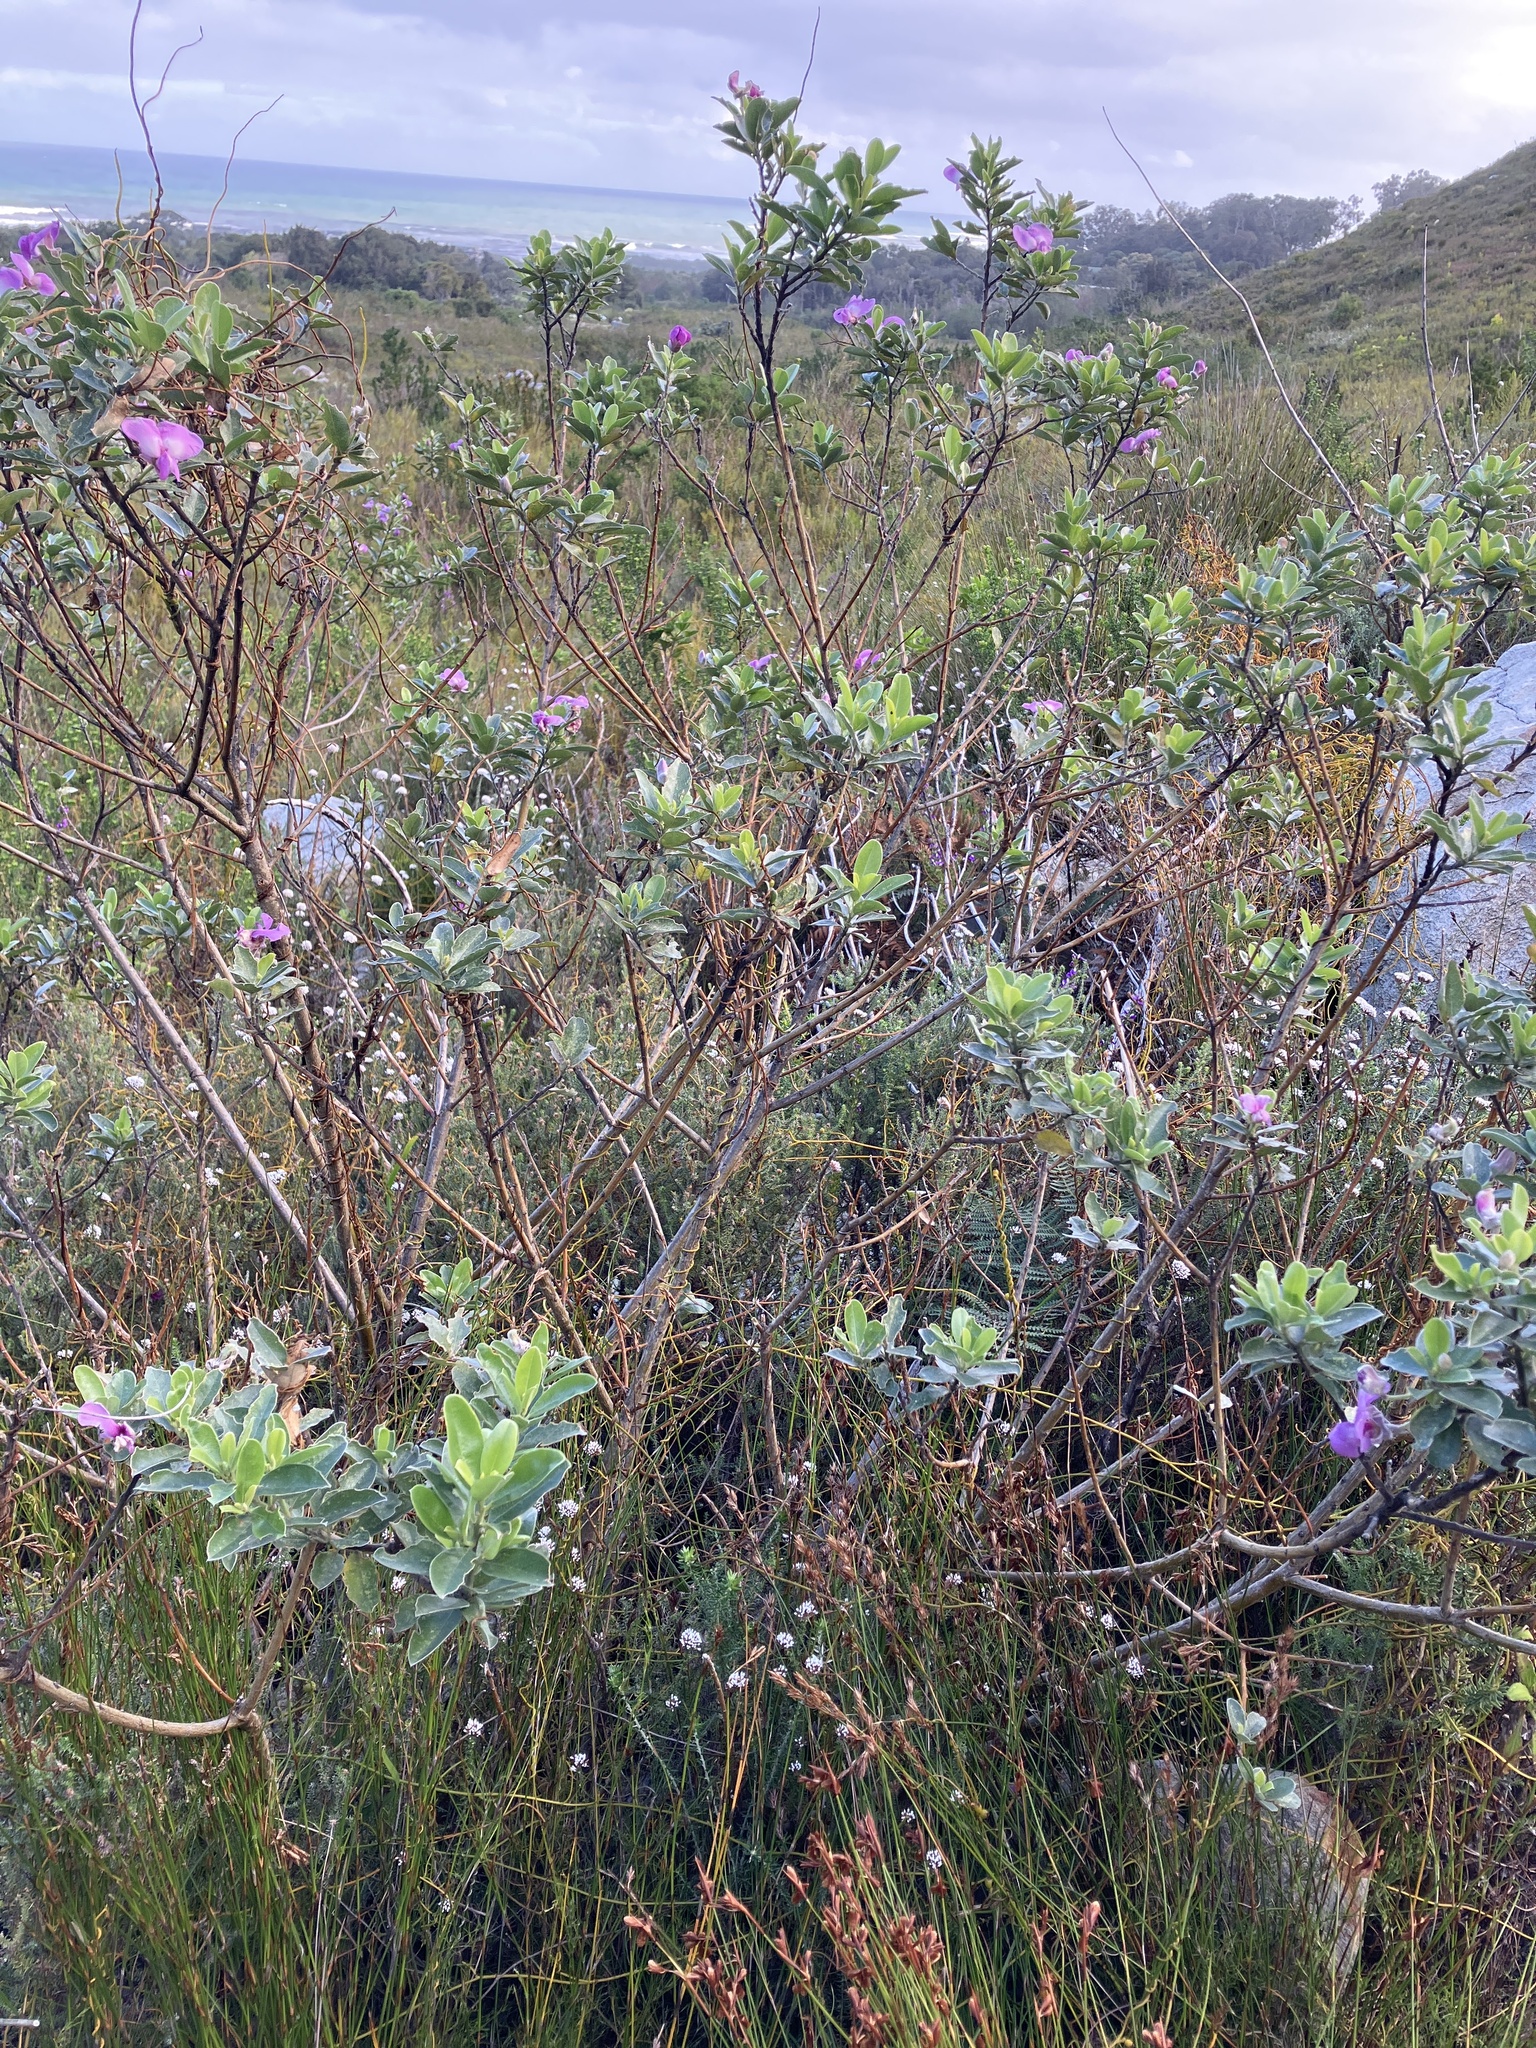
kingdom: Plantae
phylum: Tracheophyta
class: Magnoliopsida
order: Fabales
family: Fabaceae
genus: Podalyria
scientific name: Podalyria calyptrata
